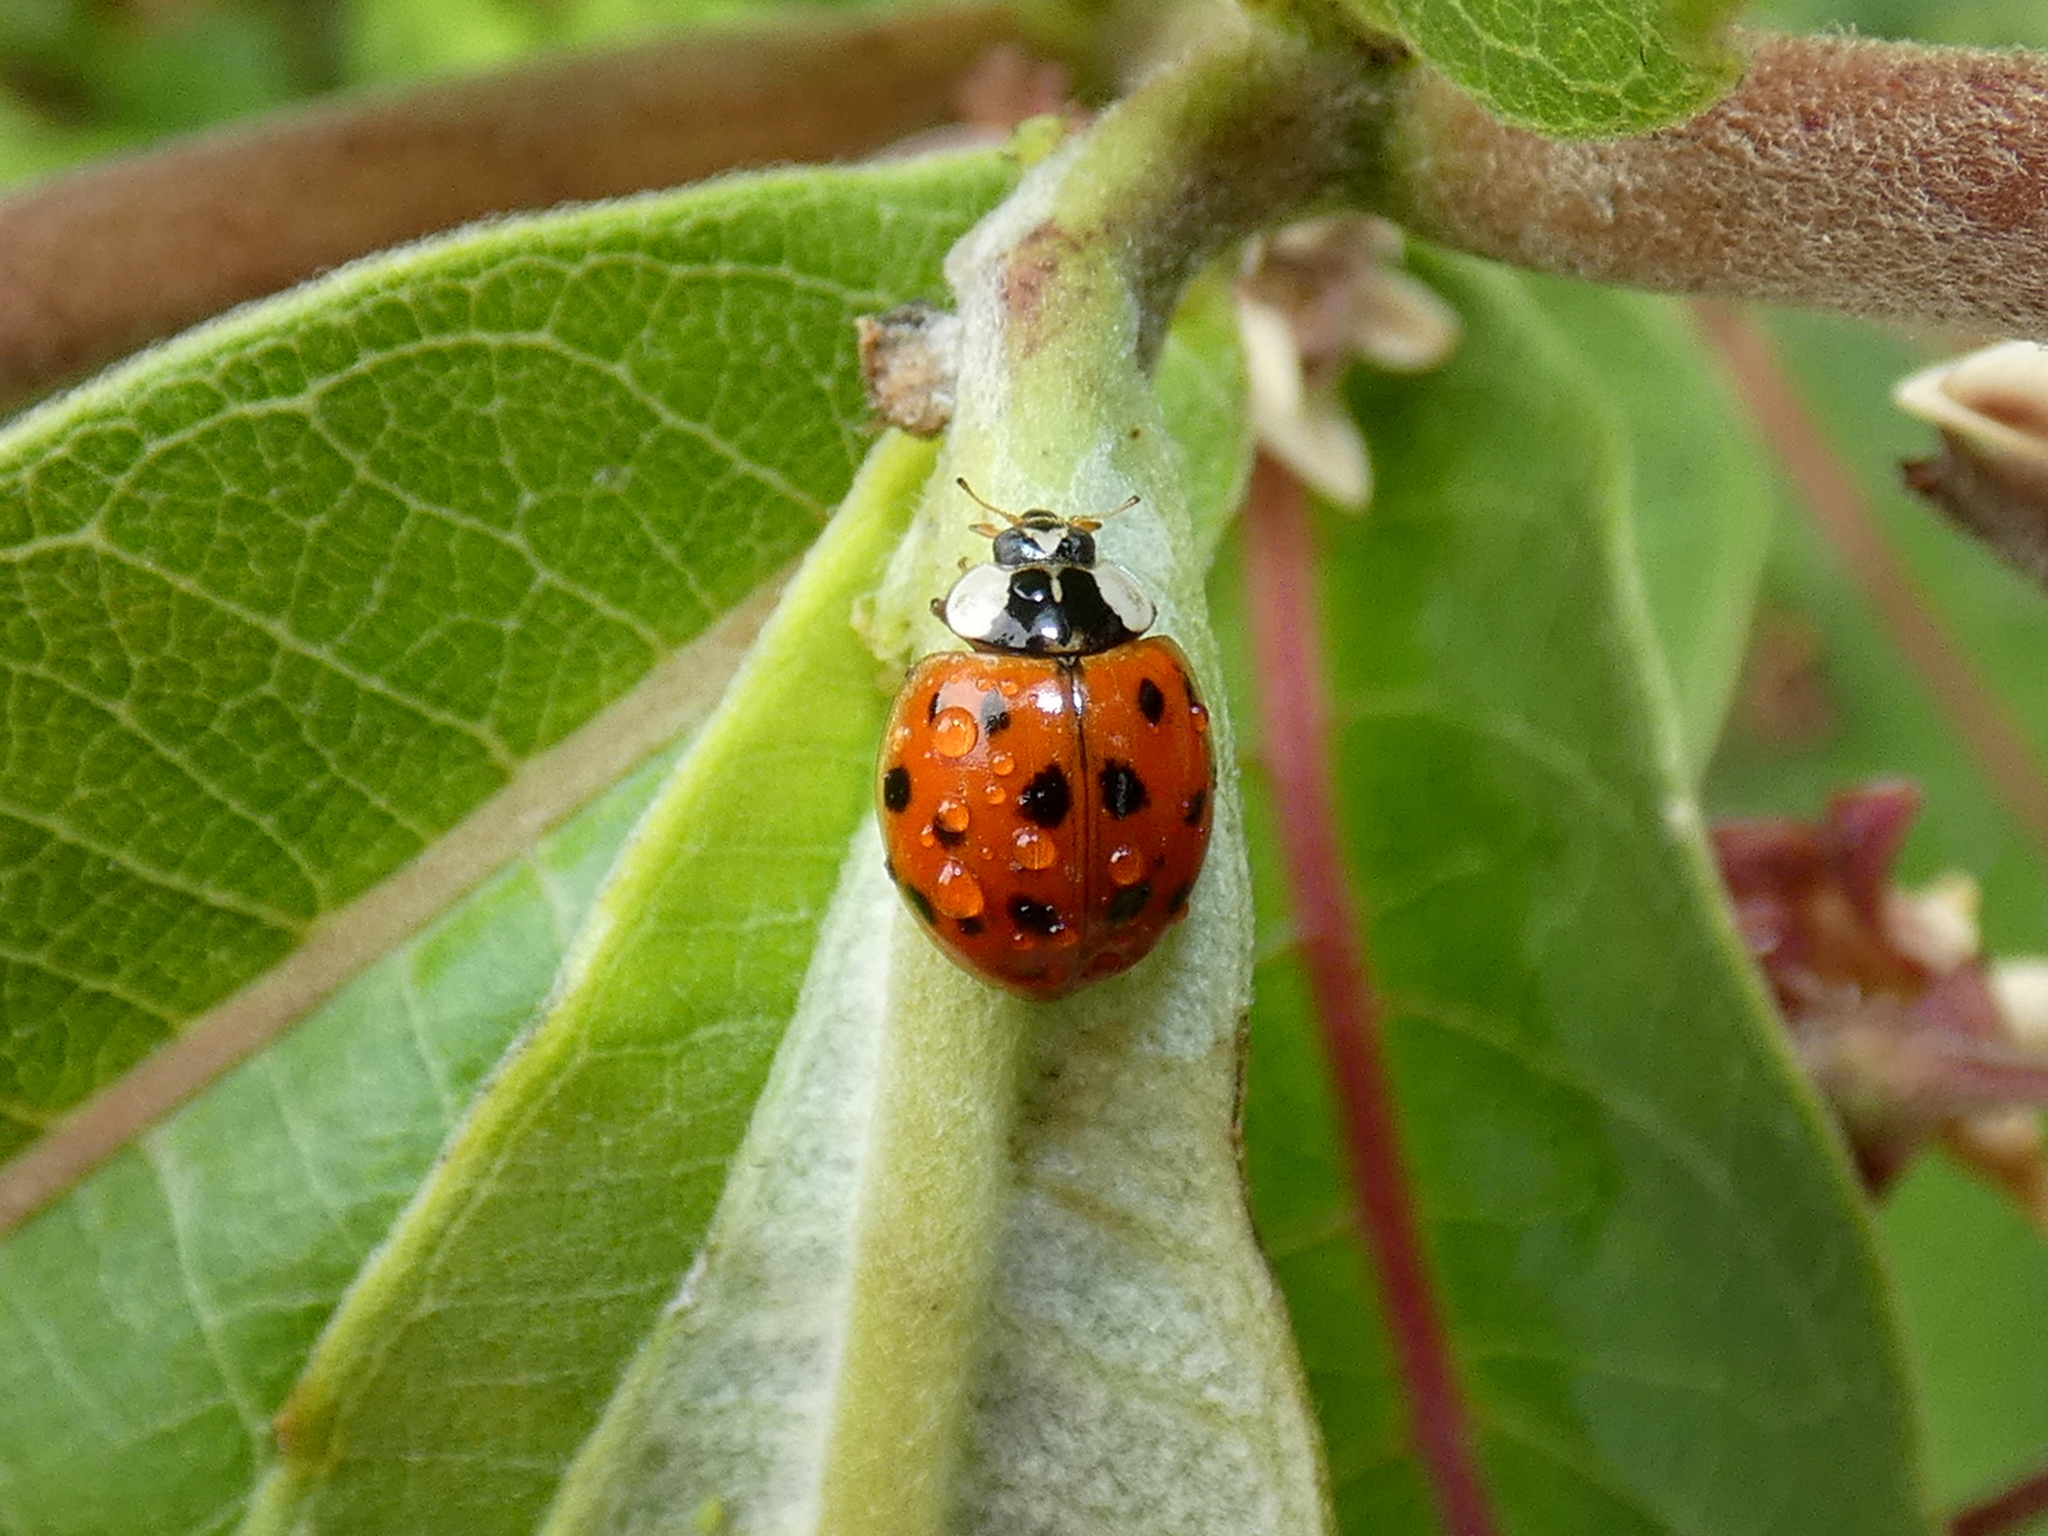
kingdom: Animalia
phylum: Arthropoda
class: Insecta
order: Coleoptera
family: Coccinellidae
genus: Harmonia
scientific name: Harmonia axyridis
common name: Harlequin ladybird
